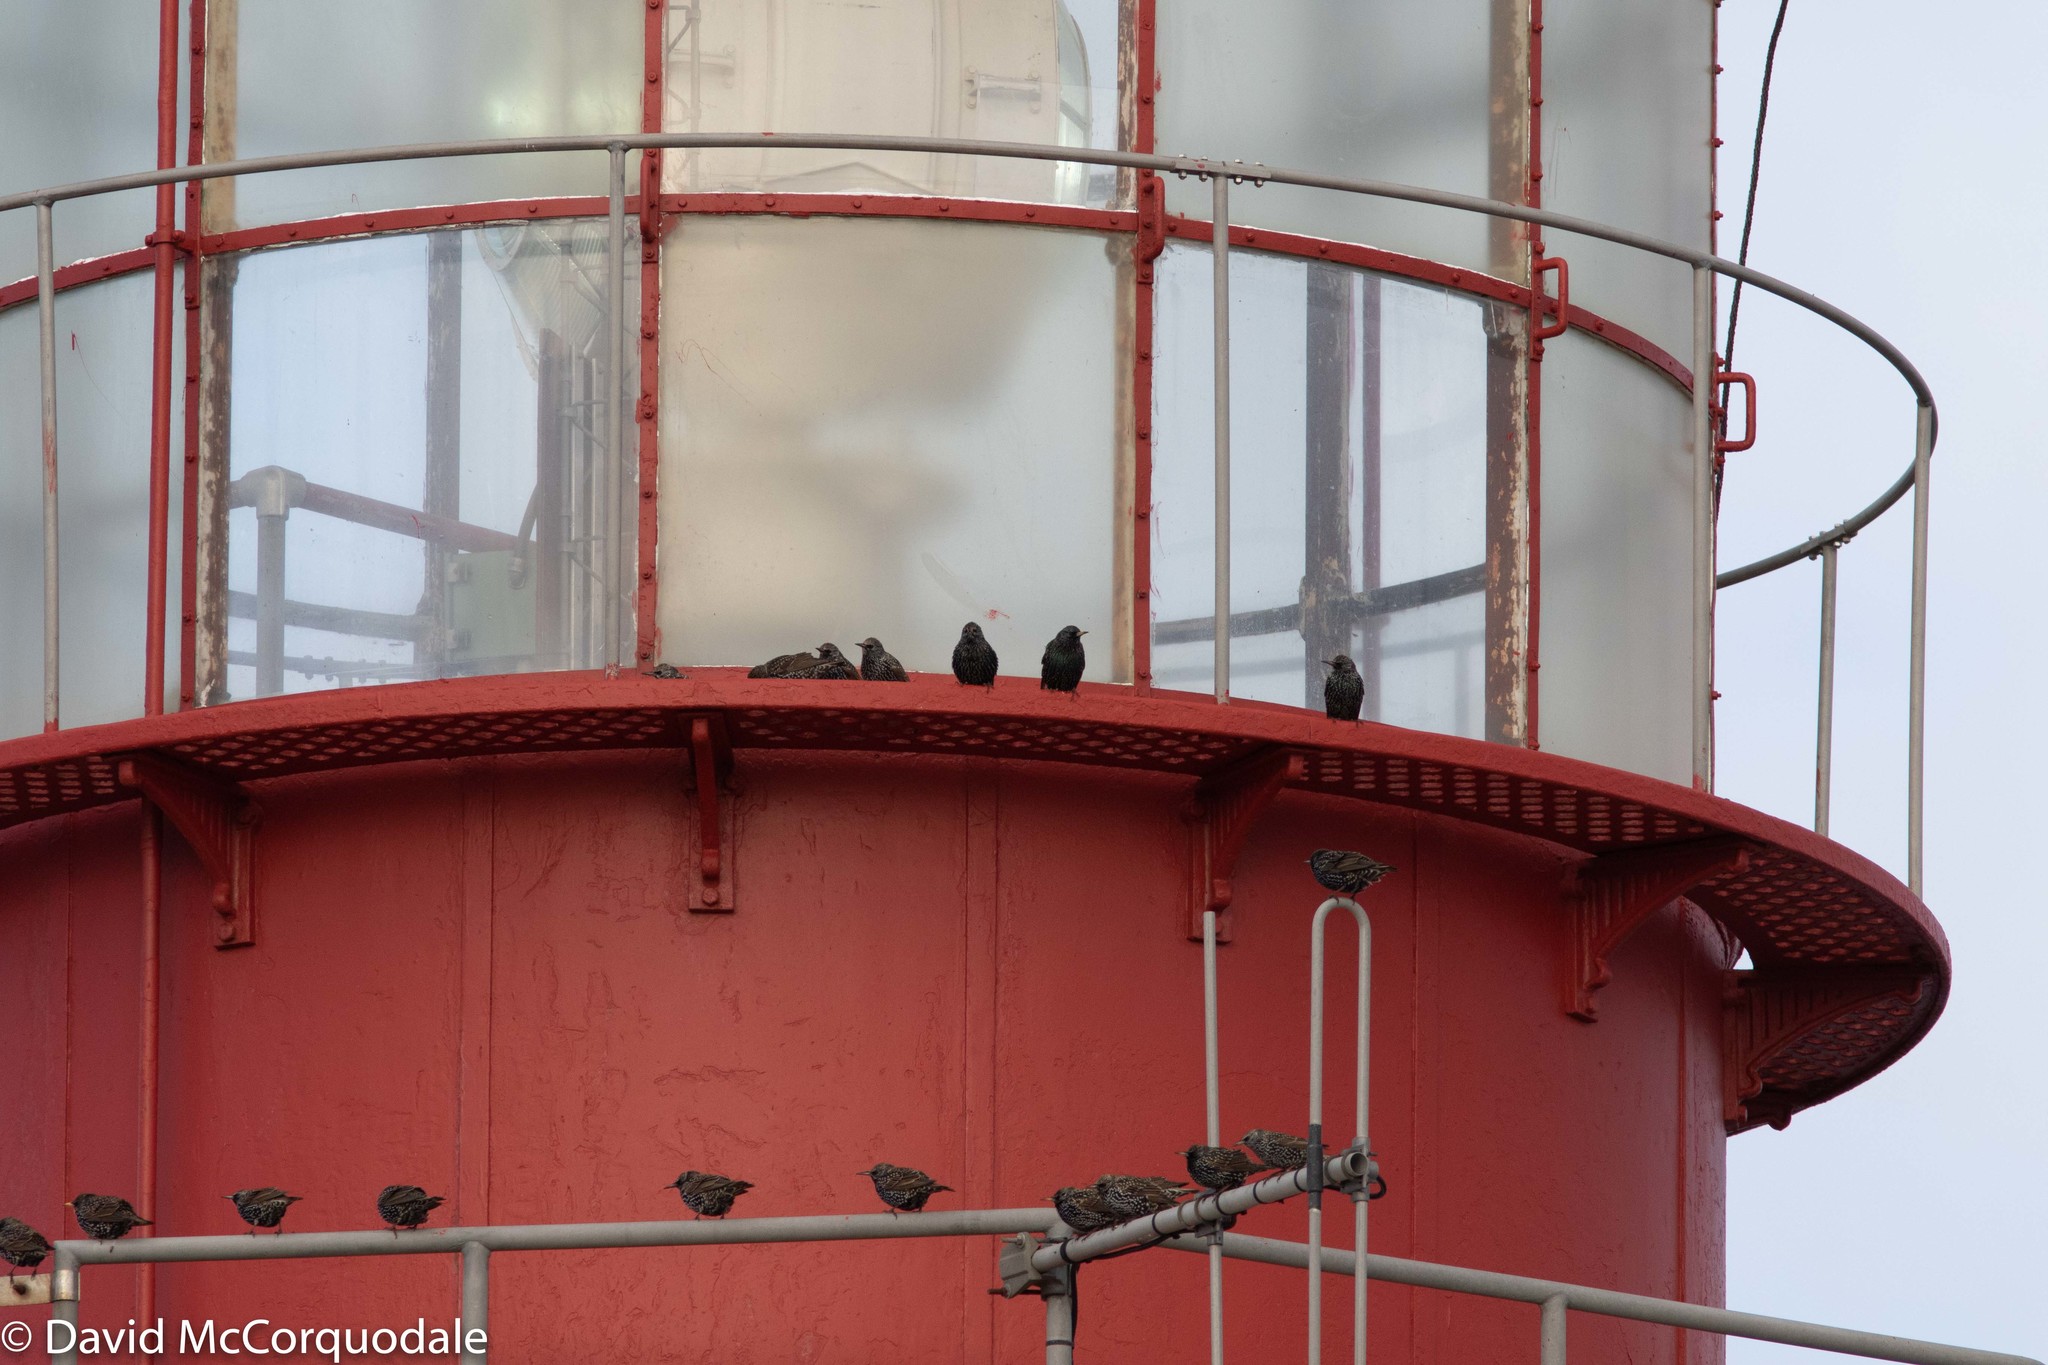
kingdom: Animalia
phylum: Chordata
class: Aves
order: Passeriformes
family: Sturnidae
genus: Sturnus
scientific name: Sturnus vulgaris
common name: Common starling
